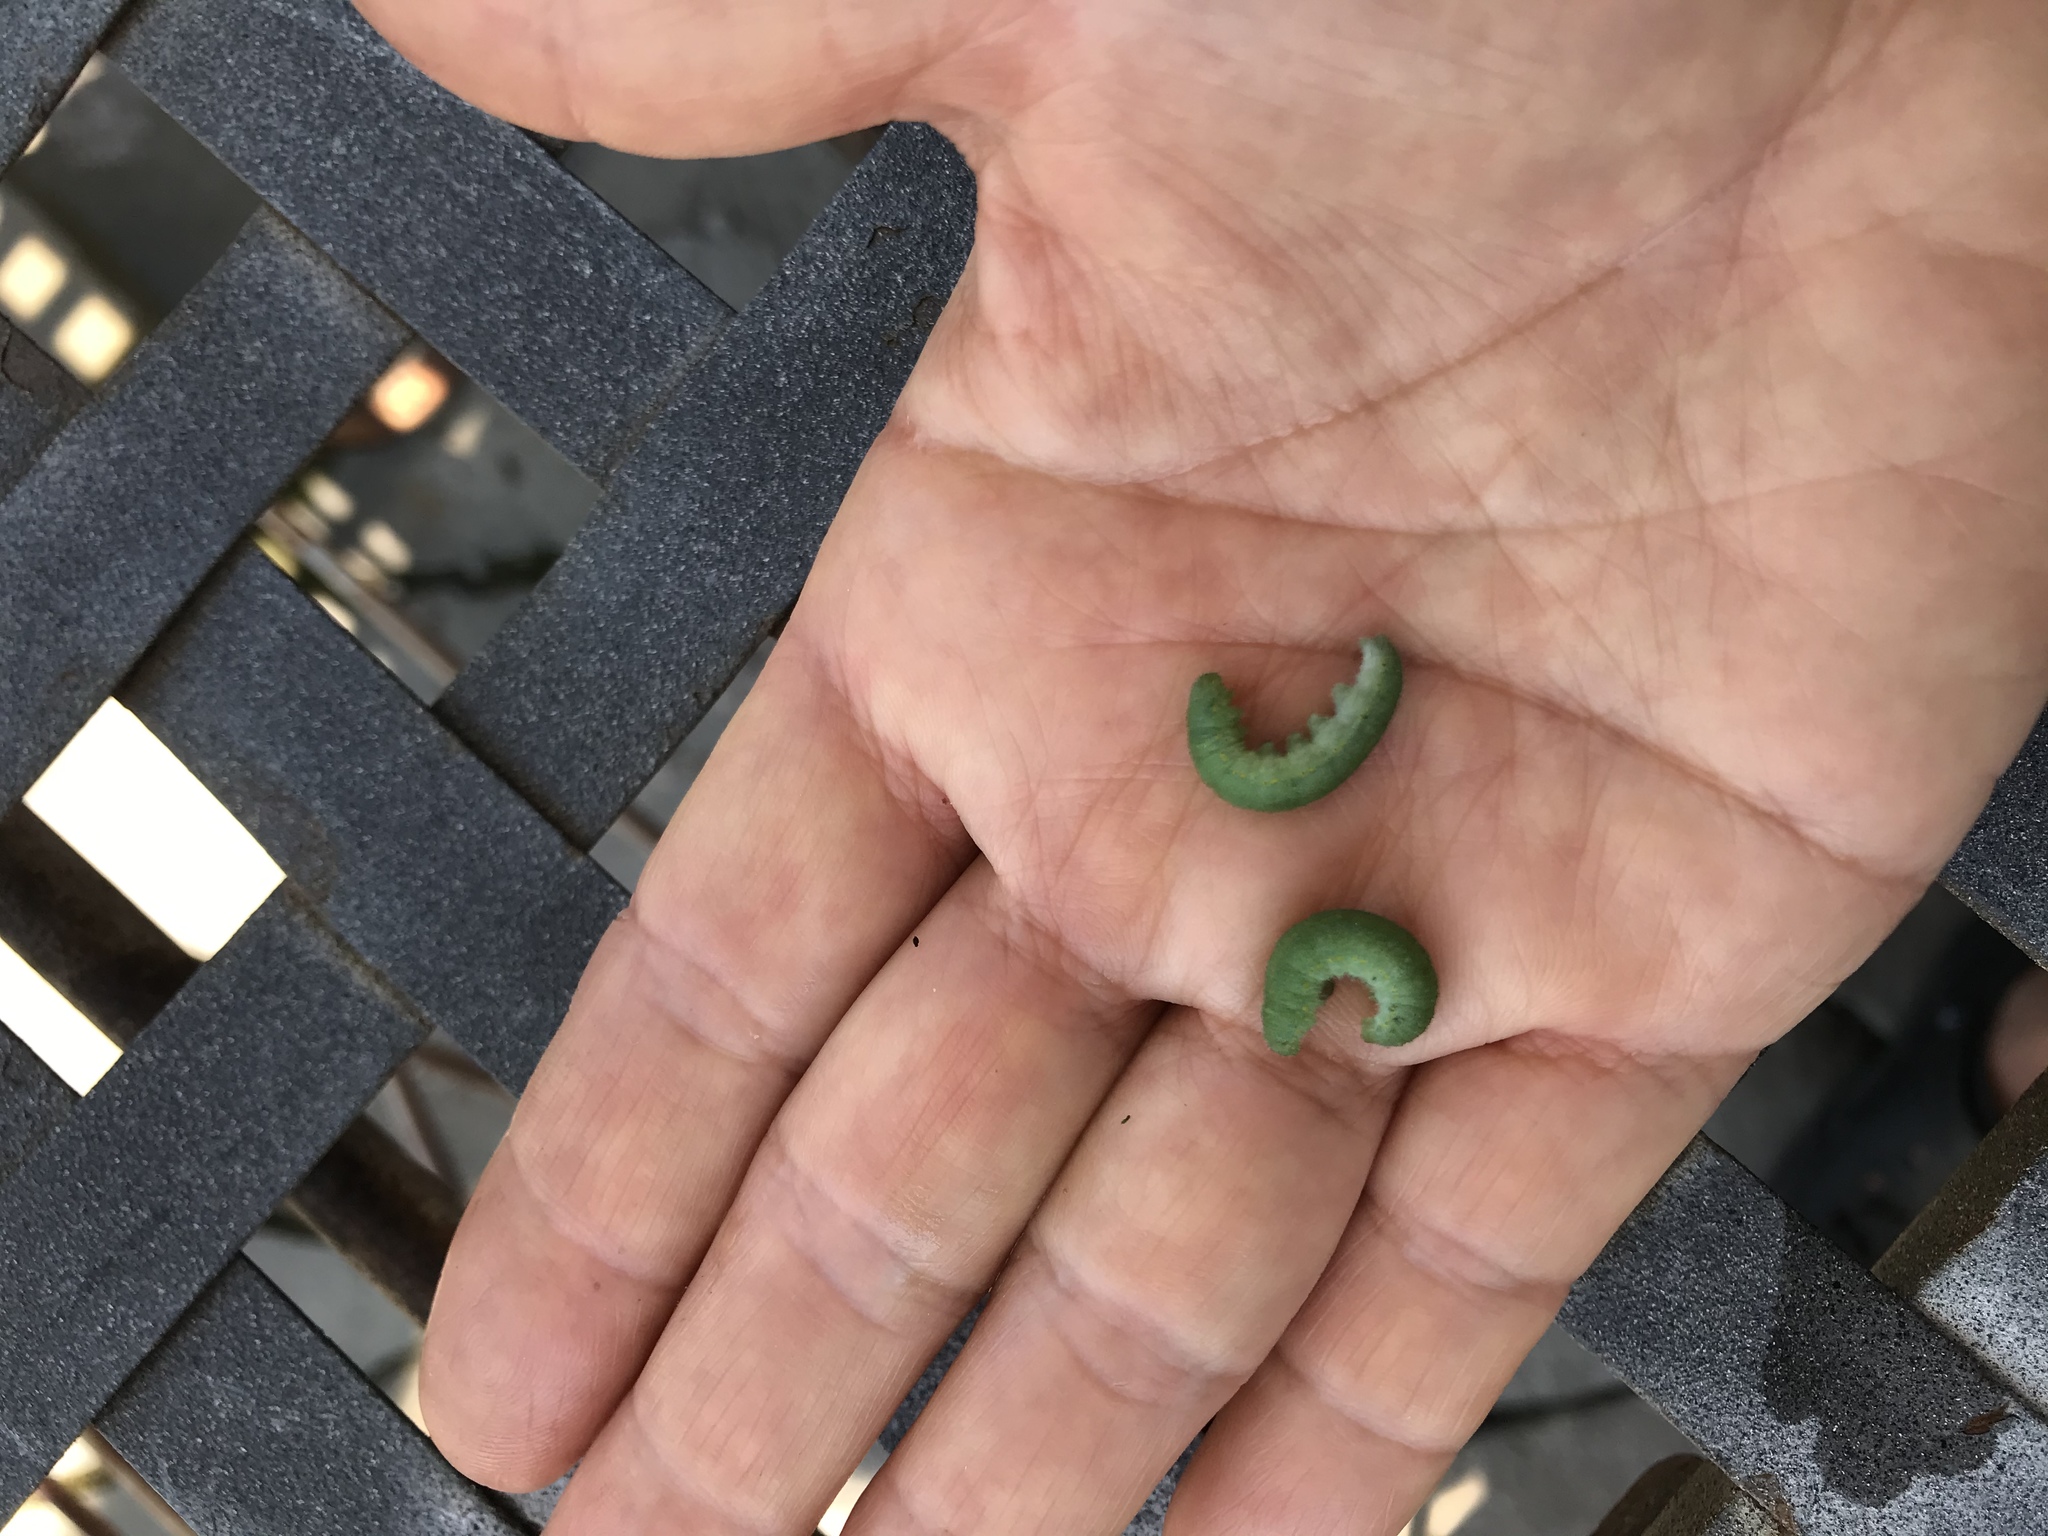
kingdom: Animalia
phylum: Arthropoda
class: Insecta
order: Lepidoptera
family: Pieridae
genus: Pieris
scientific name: Pieris rapae
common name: Small white
